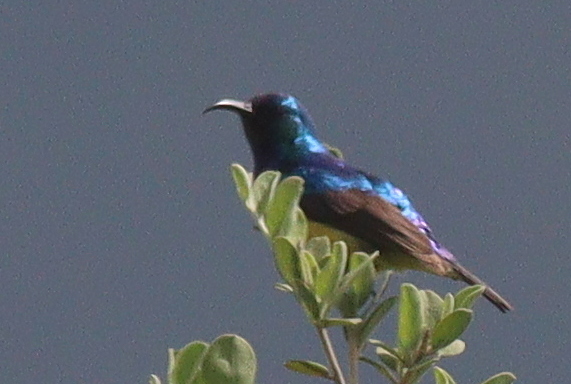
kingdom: Animalia
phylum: Chordata
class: Aves
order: Passeriformes
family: Nectariniidae
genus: Cinnyris
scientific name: Cinnyris venustus
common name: Variable sunbird
